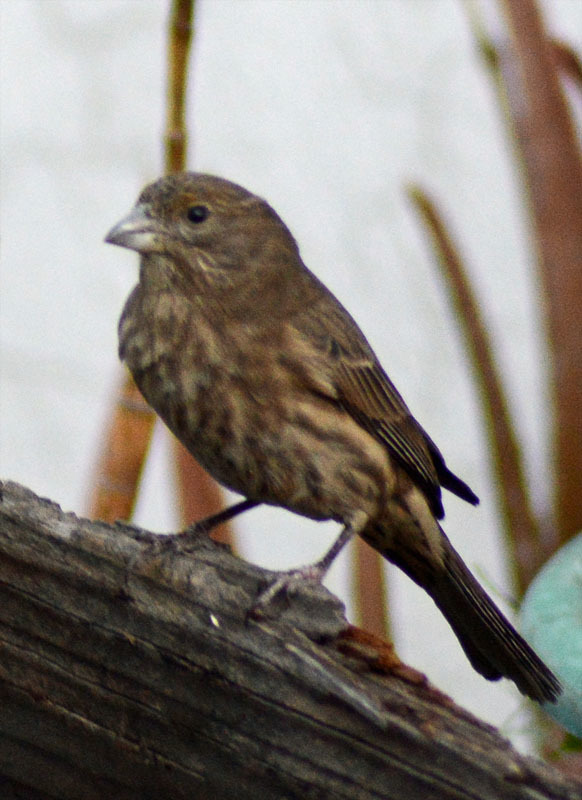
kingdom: Animalia
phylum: Chordata
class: Aves
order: Passeriformes
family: Fringillidae
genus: Haemorhous
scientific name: Haemorhous mexicanus
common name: House finch
